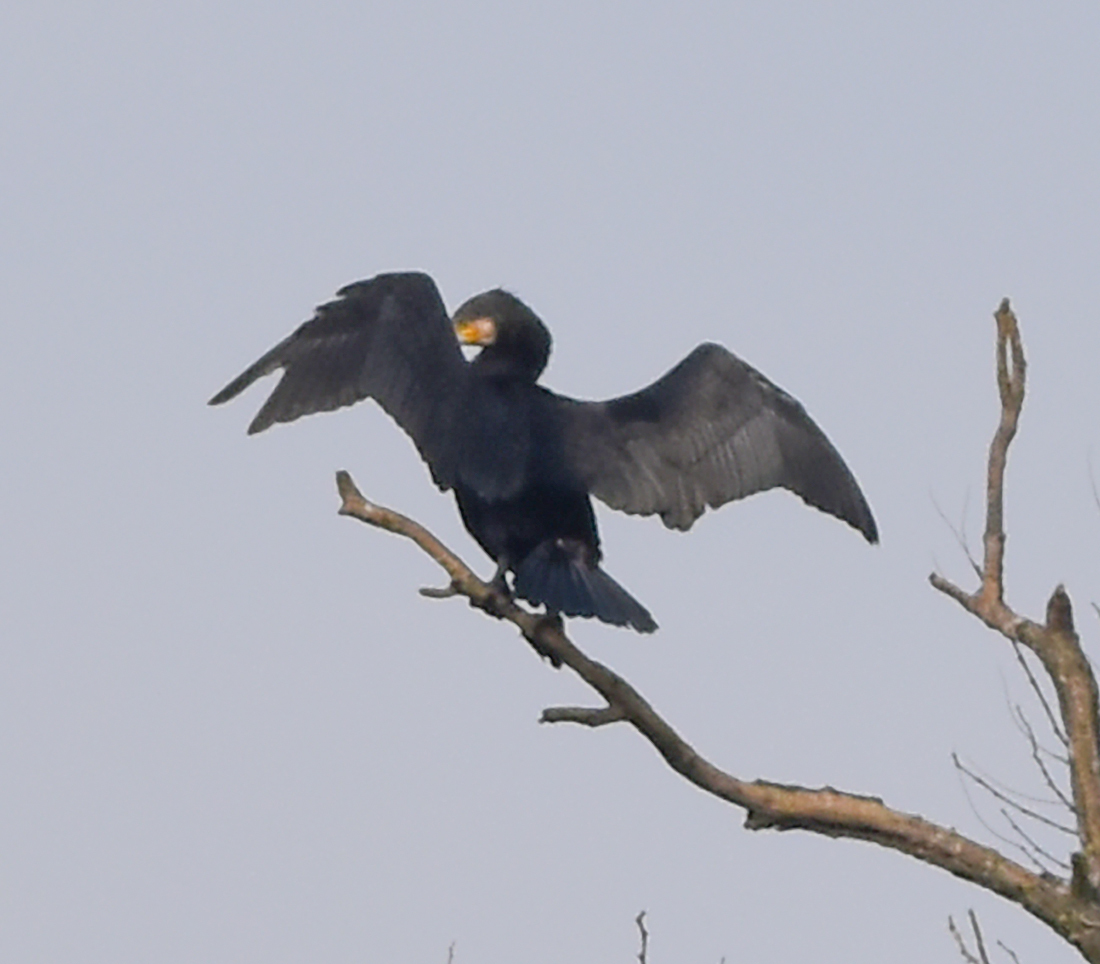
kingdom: Animalia
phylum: Chordata
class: Aves
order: Suliformes
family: Phalacrocoracidae
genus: Phalacrocorax
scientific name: Phalacrocorax carbo
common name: Great cormorant
